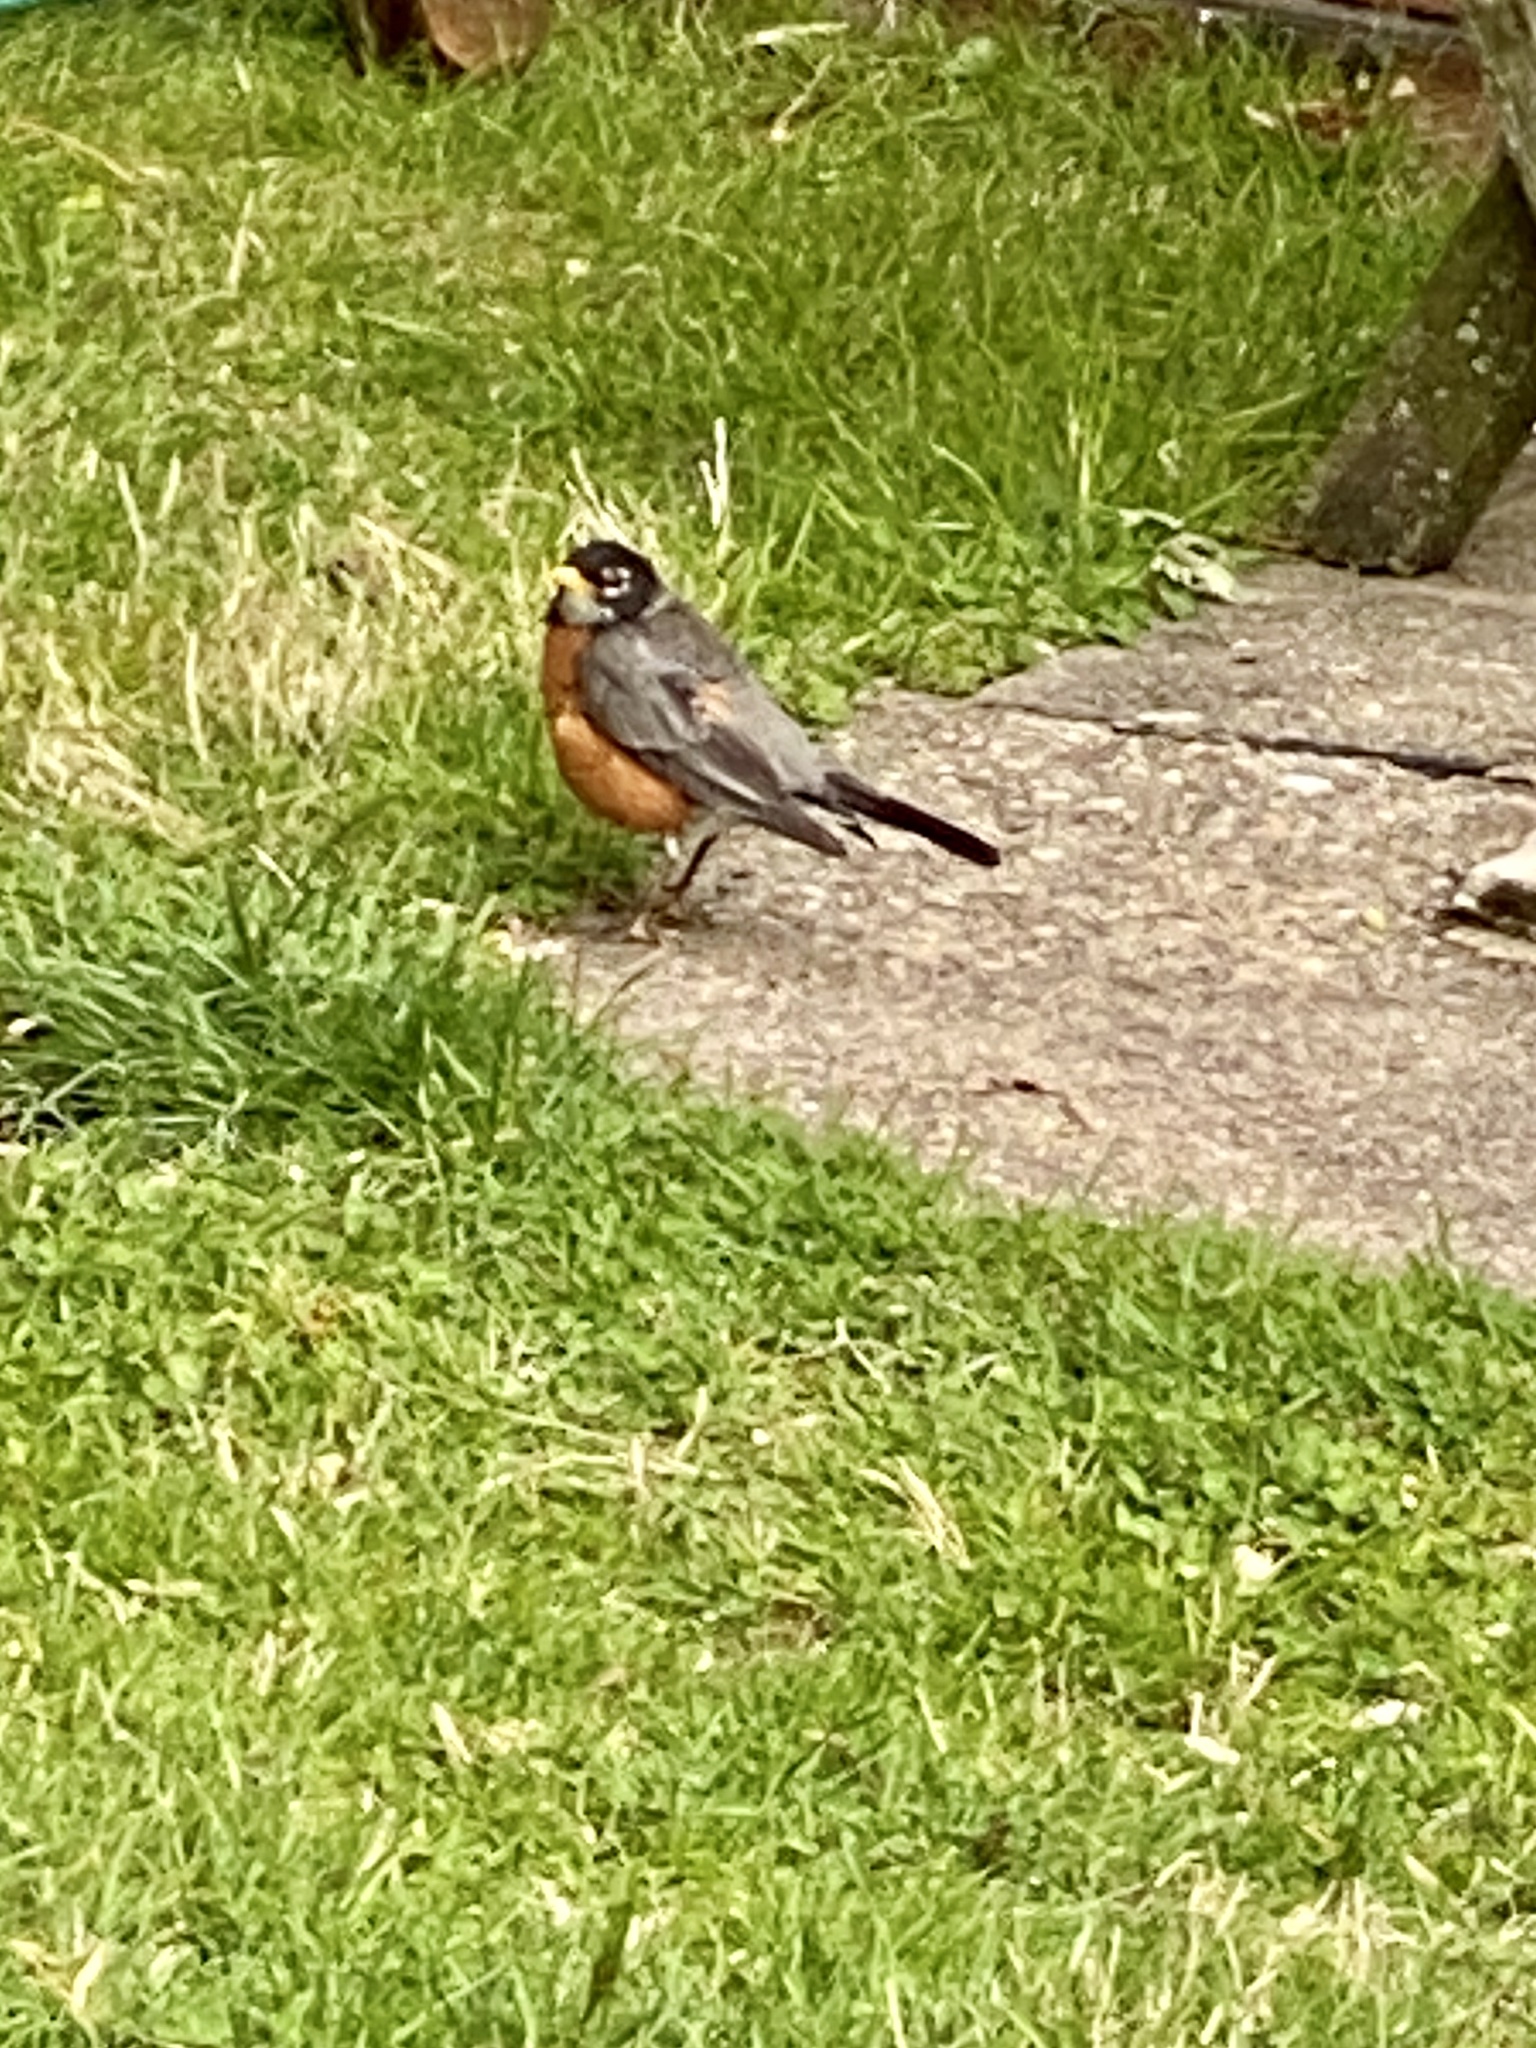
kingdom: Animalia
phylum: Chordata
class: Aves
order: Passeriformes
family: Turdidae
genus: Turdus
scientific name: Turdus migratorius
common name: American robin
